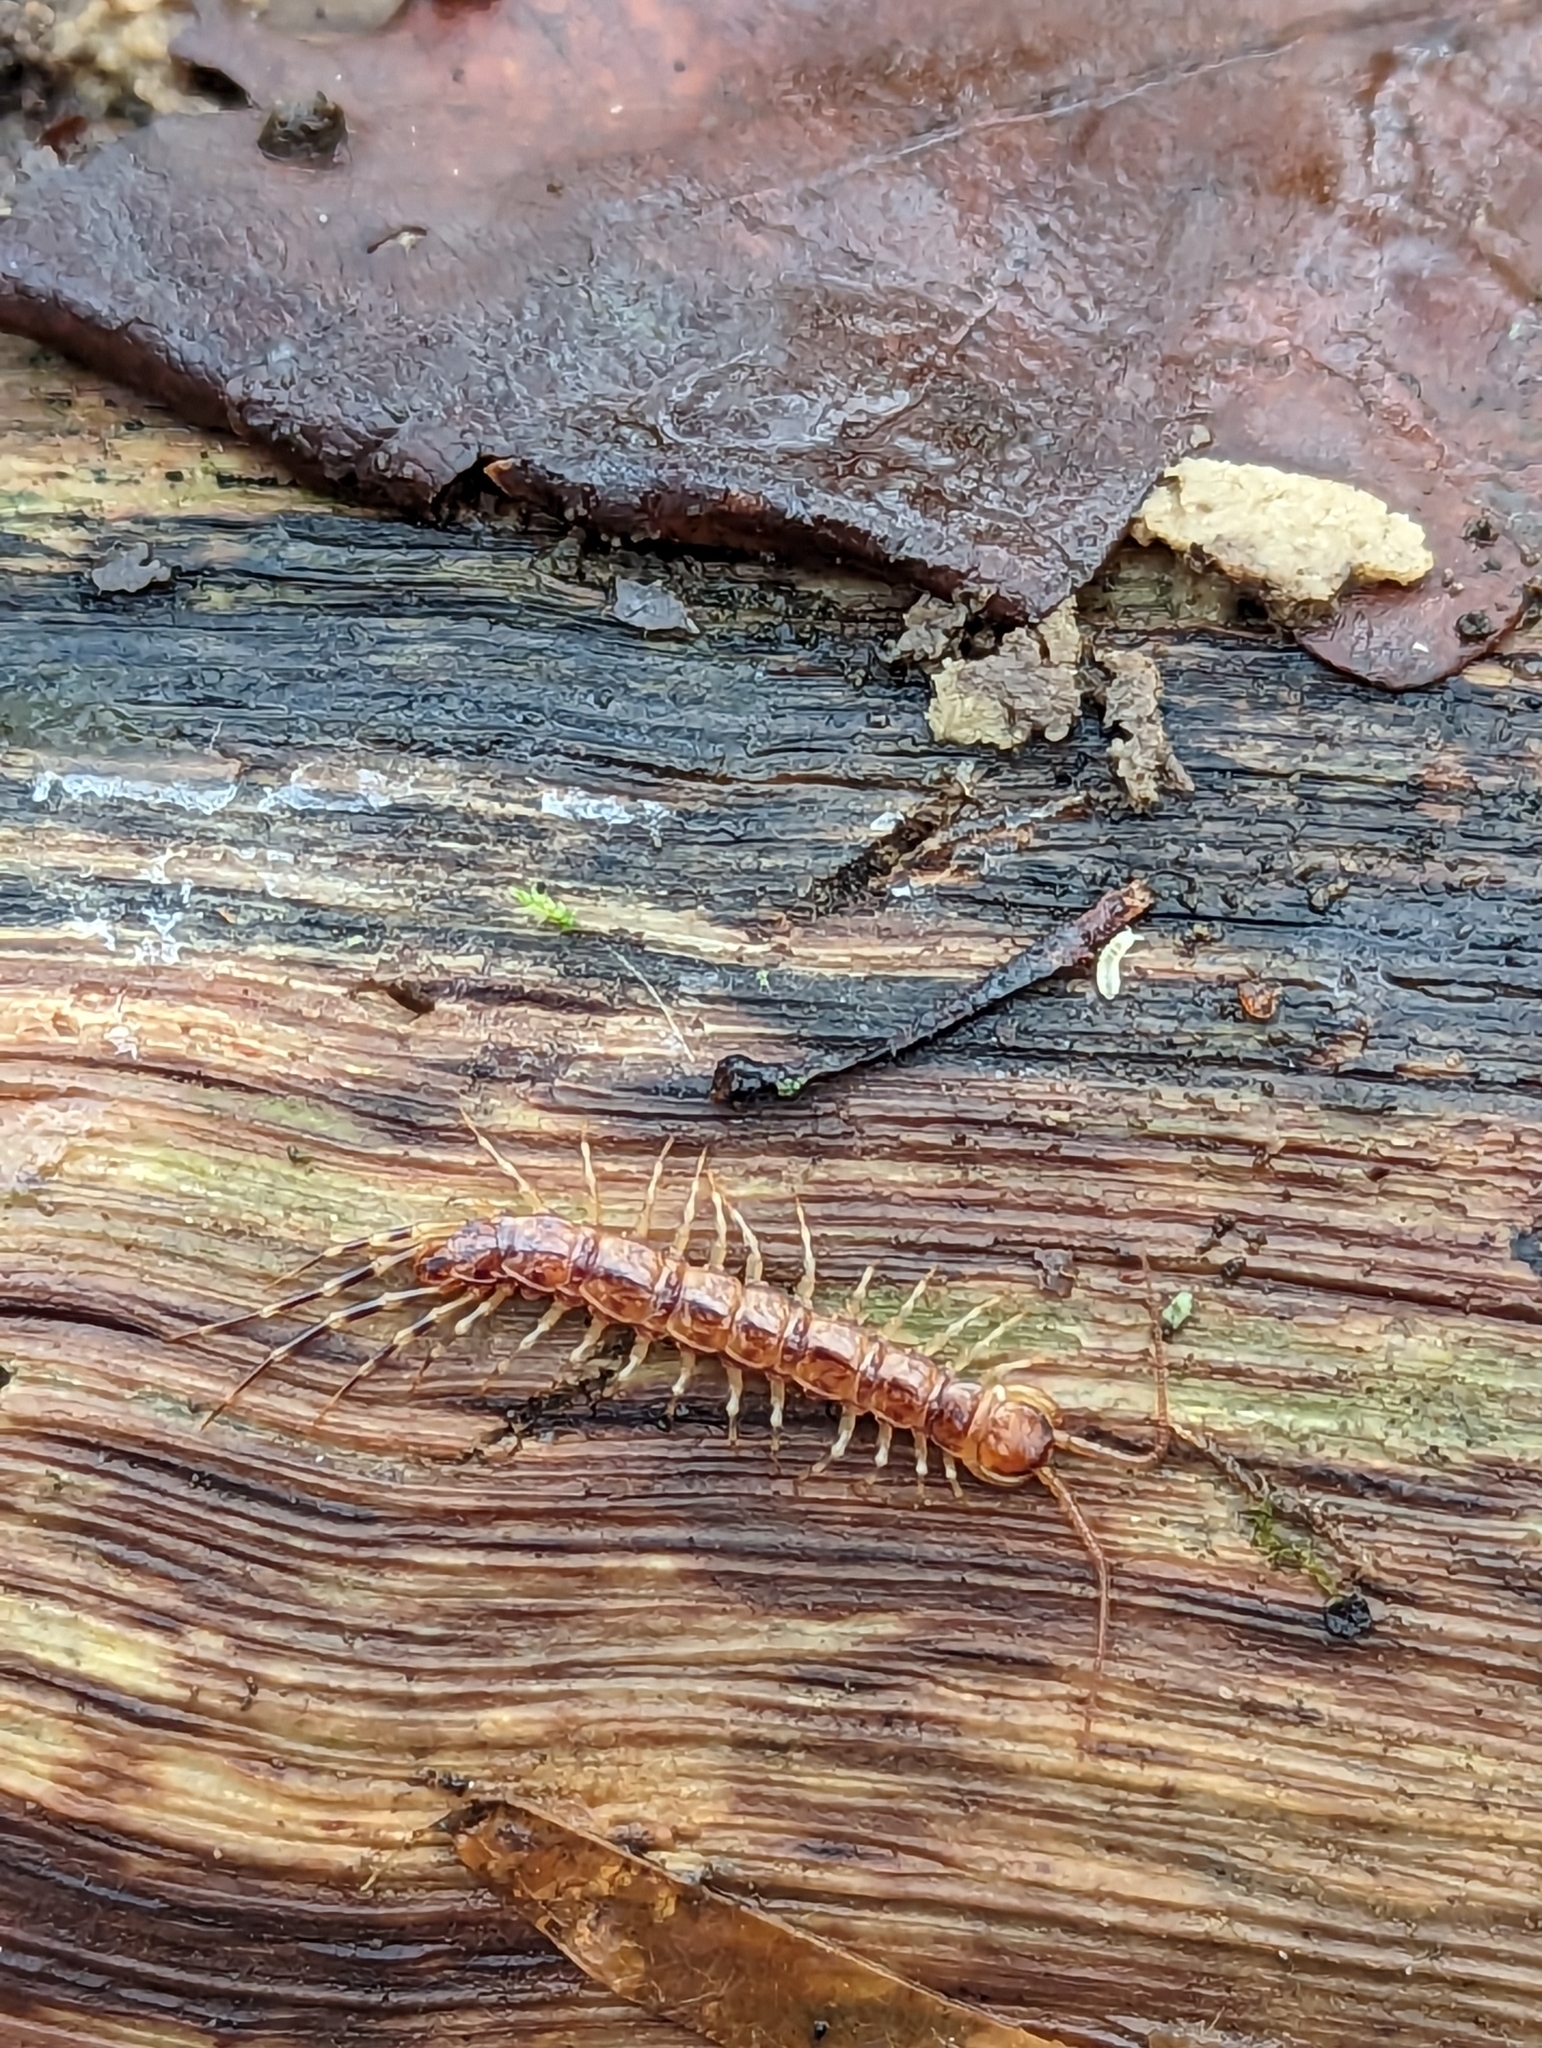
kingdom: Animalia
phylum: Arthropoda
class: Chilopoda
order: Lithobiomorpha
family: Lithobiidae
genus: Lithobius
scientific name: Lithobius variegatus
